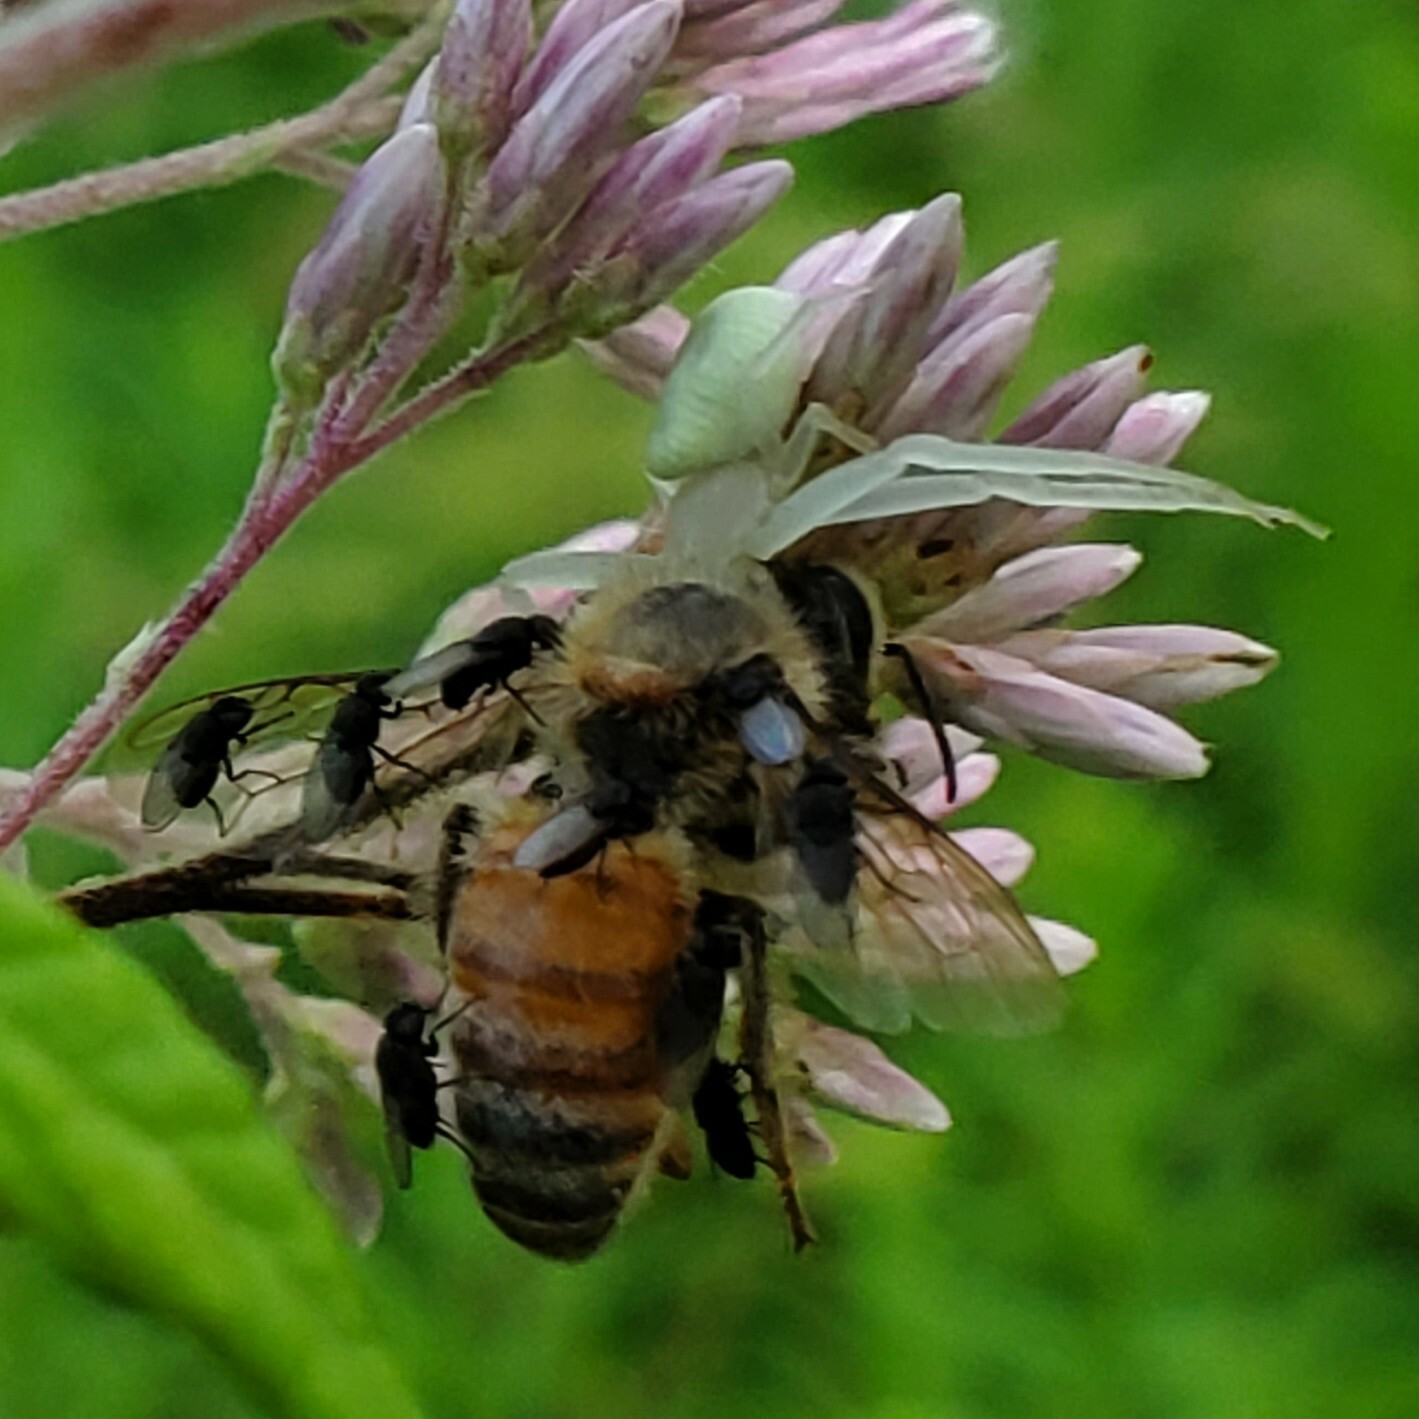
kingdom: Animalia
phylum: Arthropoda
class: Insecta
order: Hymenoptera
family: Apidae
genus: Apis
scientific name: Apis mellifera
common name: Honey bee
